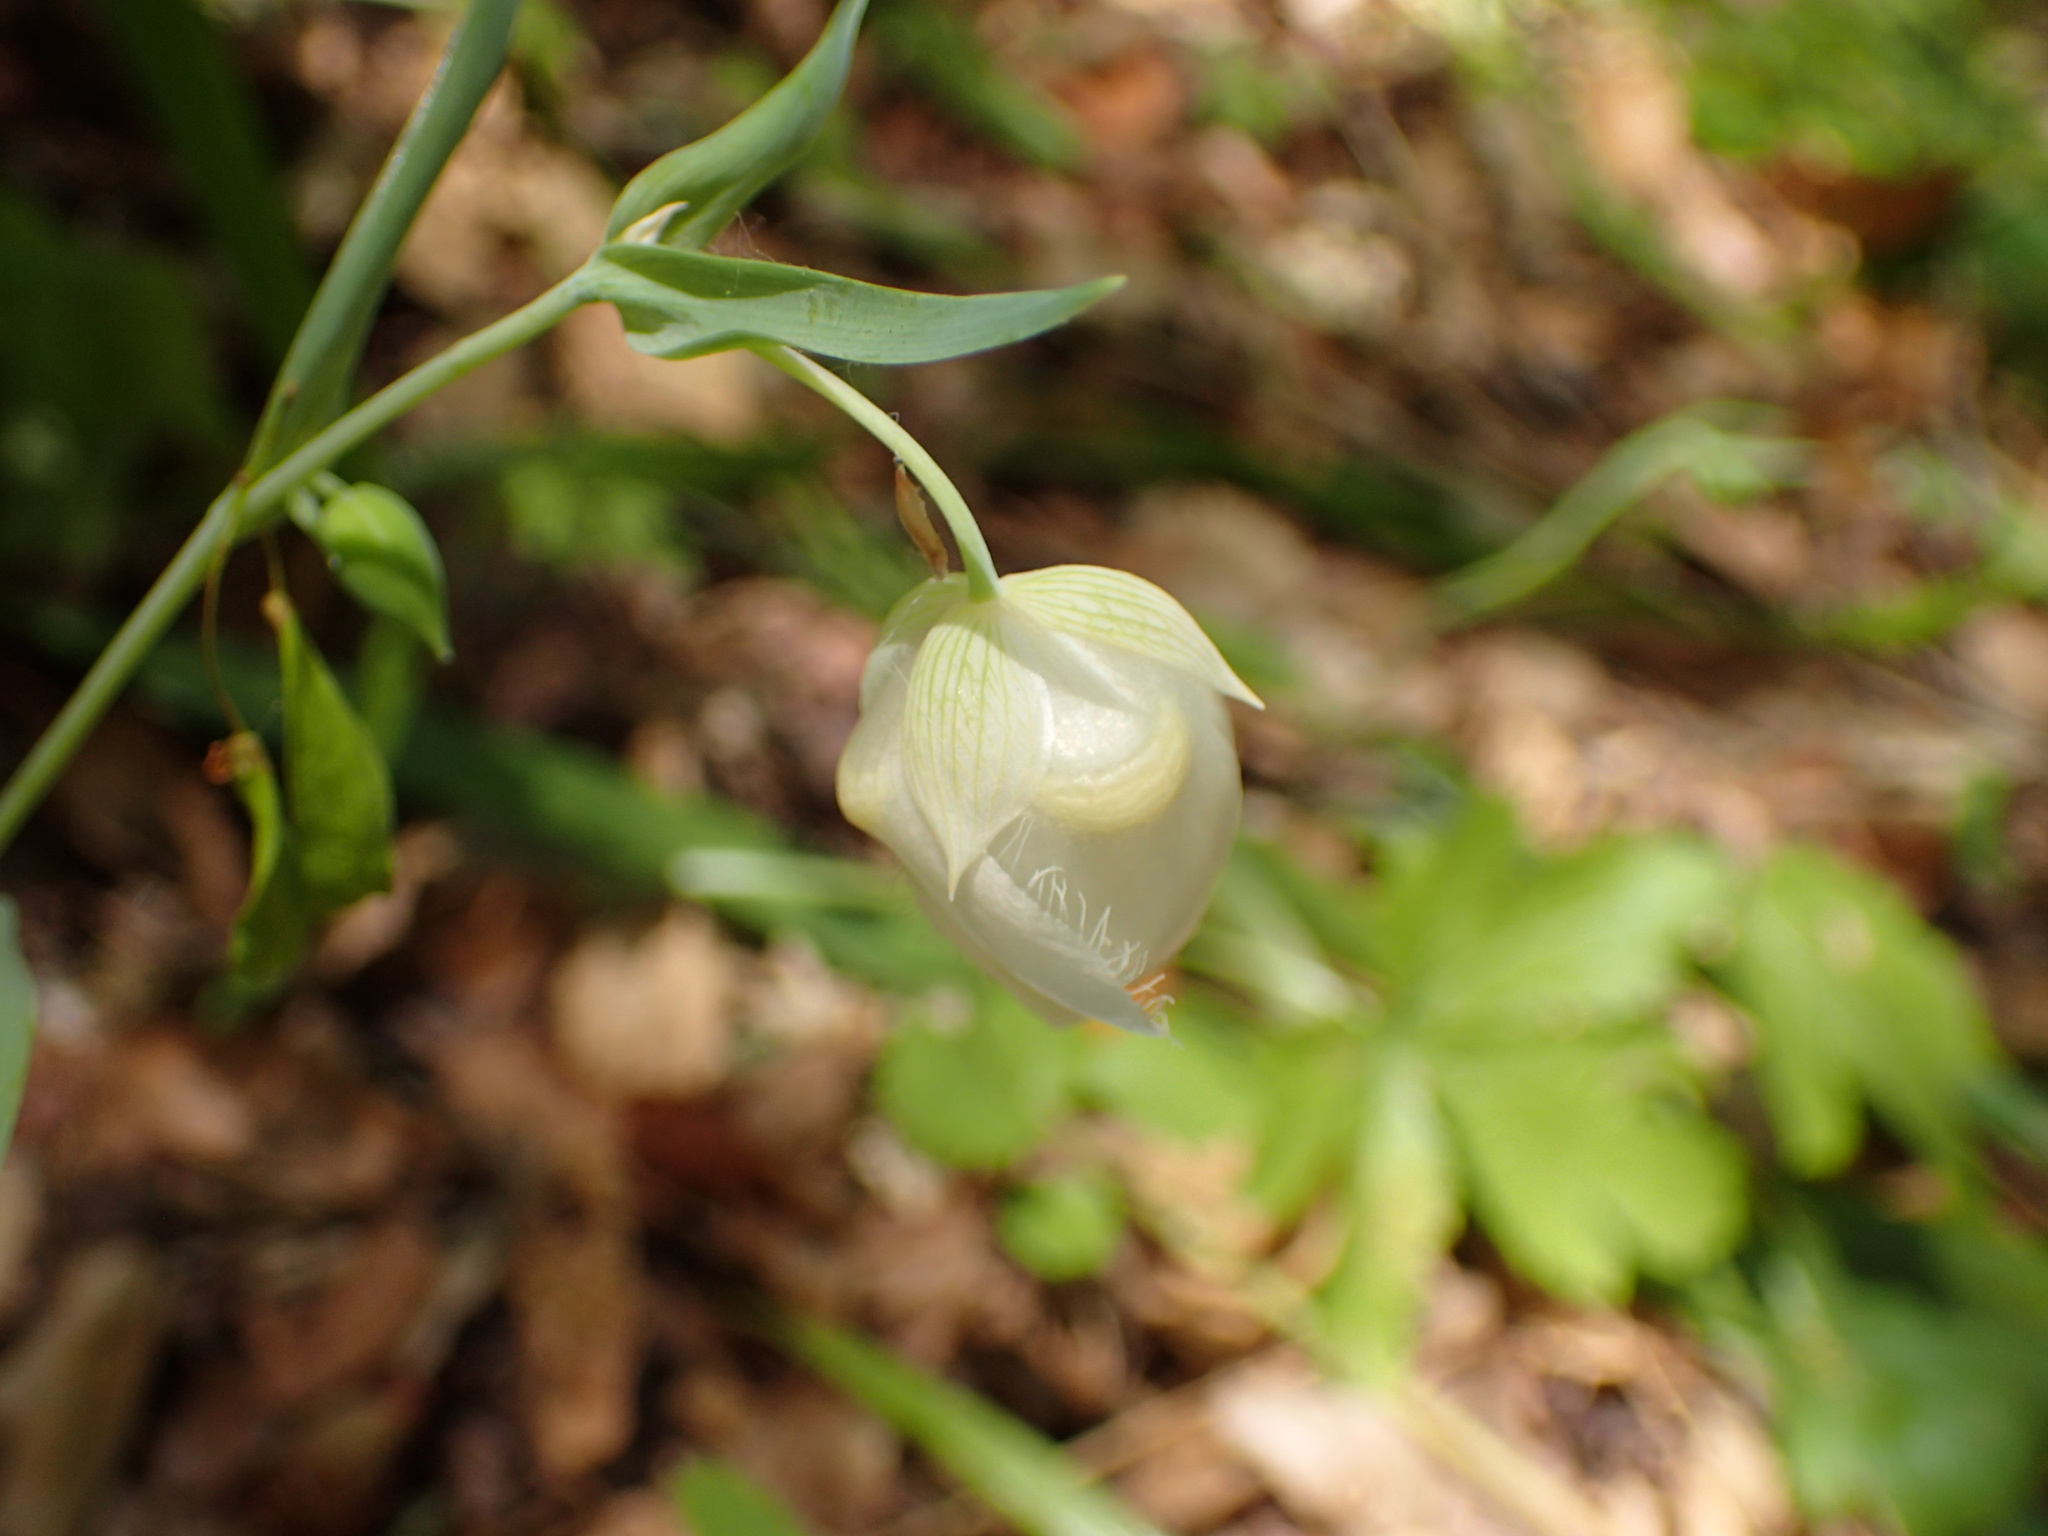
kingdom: Plantae
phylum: Tracheophyta
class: Liliopsida
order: Liliales
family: Liliaceae
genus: Calochortus
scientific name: Calochortus albus
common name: Fairy-lantern
